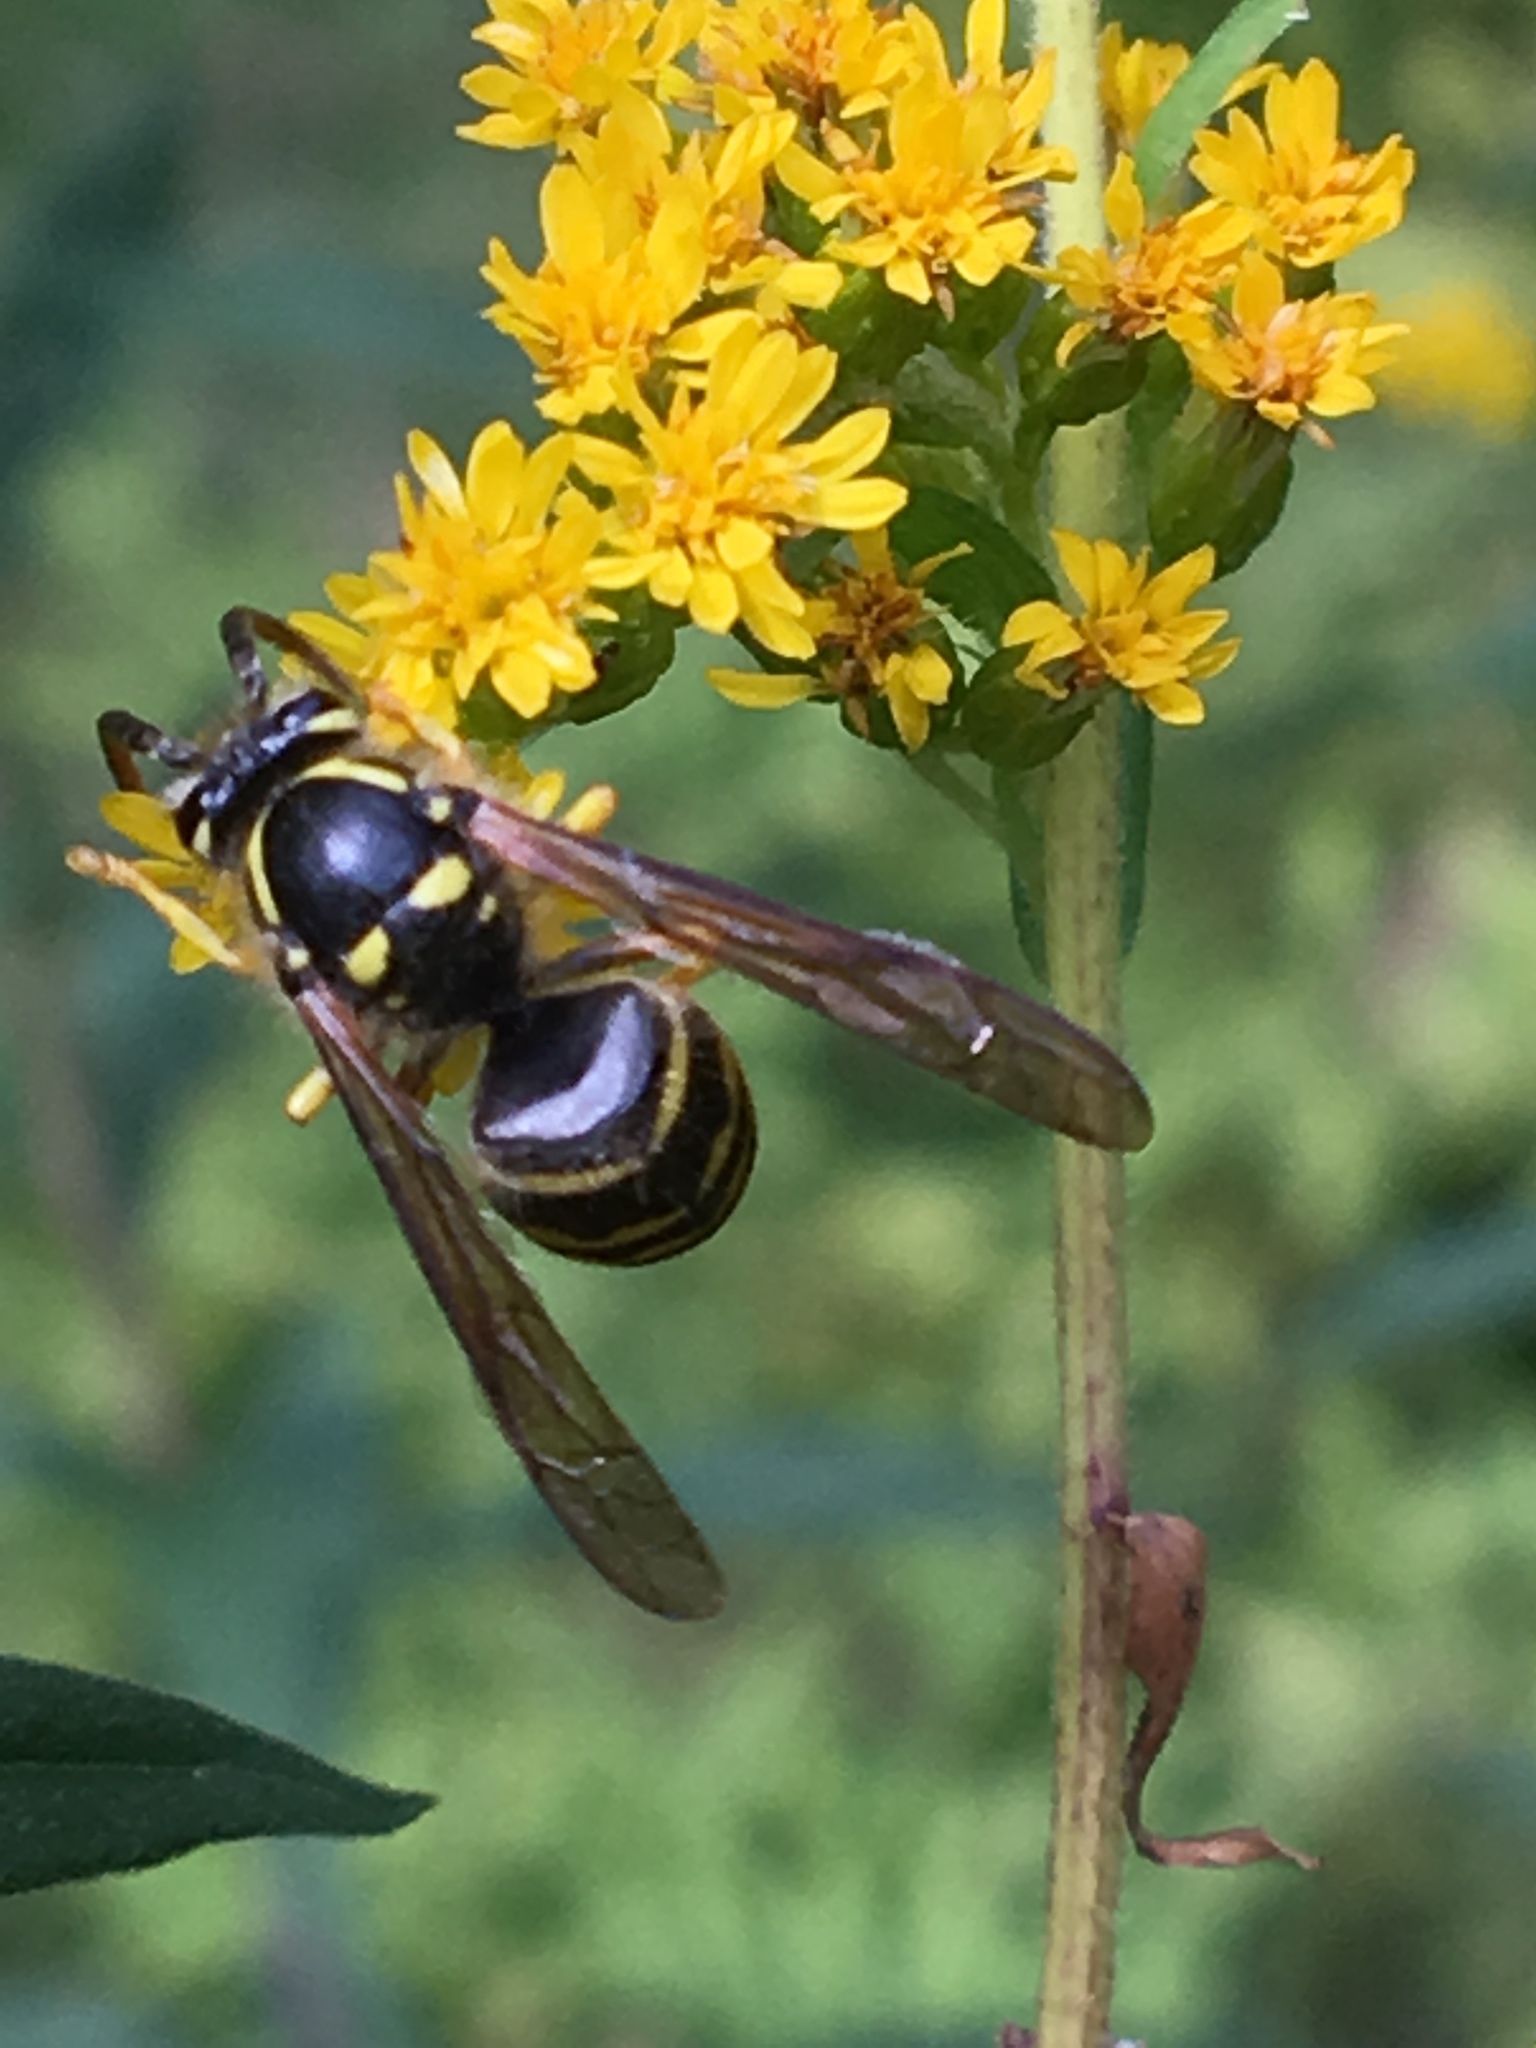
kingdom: Animalia
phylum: Arthropoda
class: Insecta
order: Hymenoptera
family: Vespidae
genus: Dolichovespula
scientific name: Dolichovespula arenaria
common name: Aerial yellowjacket
